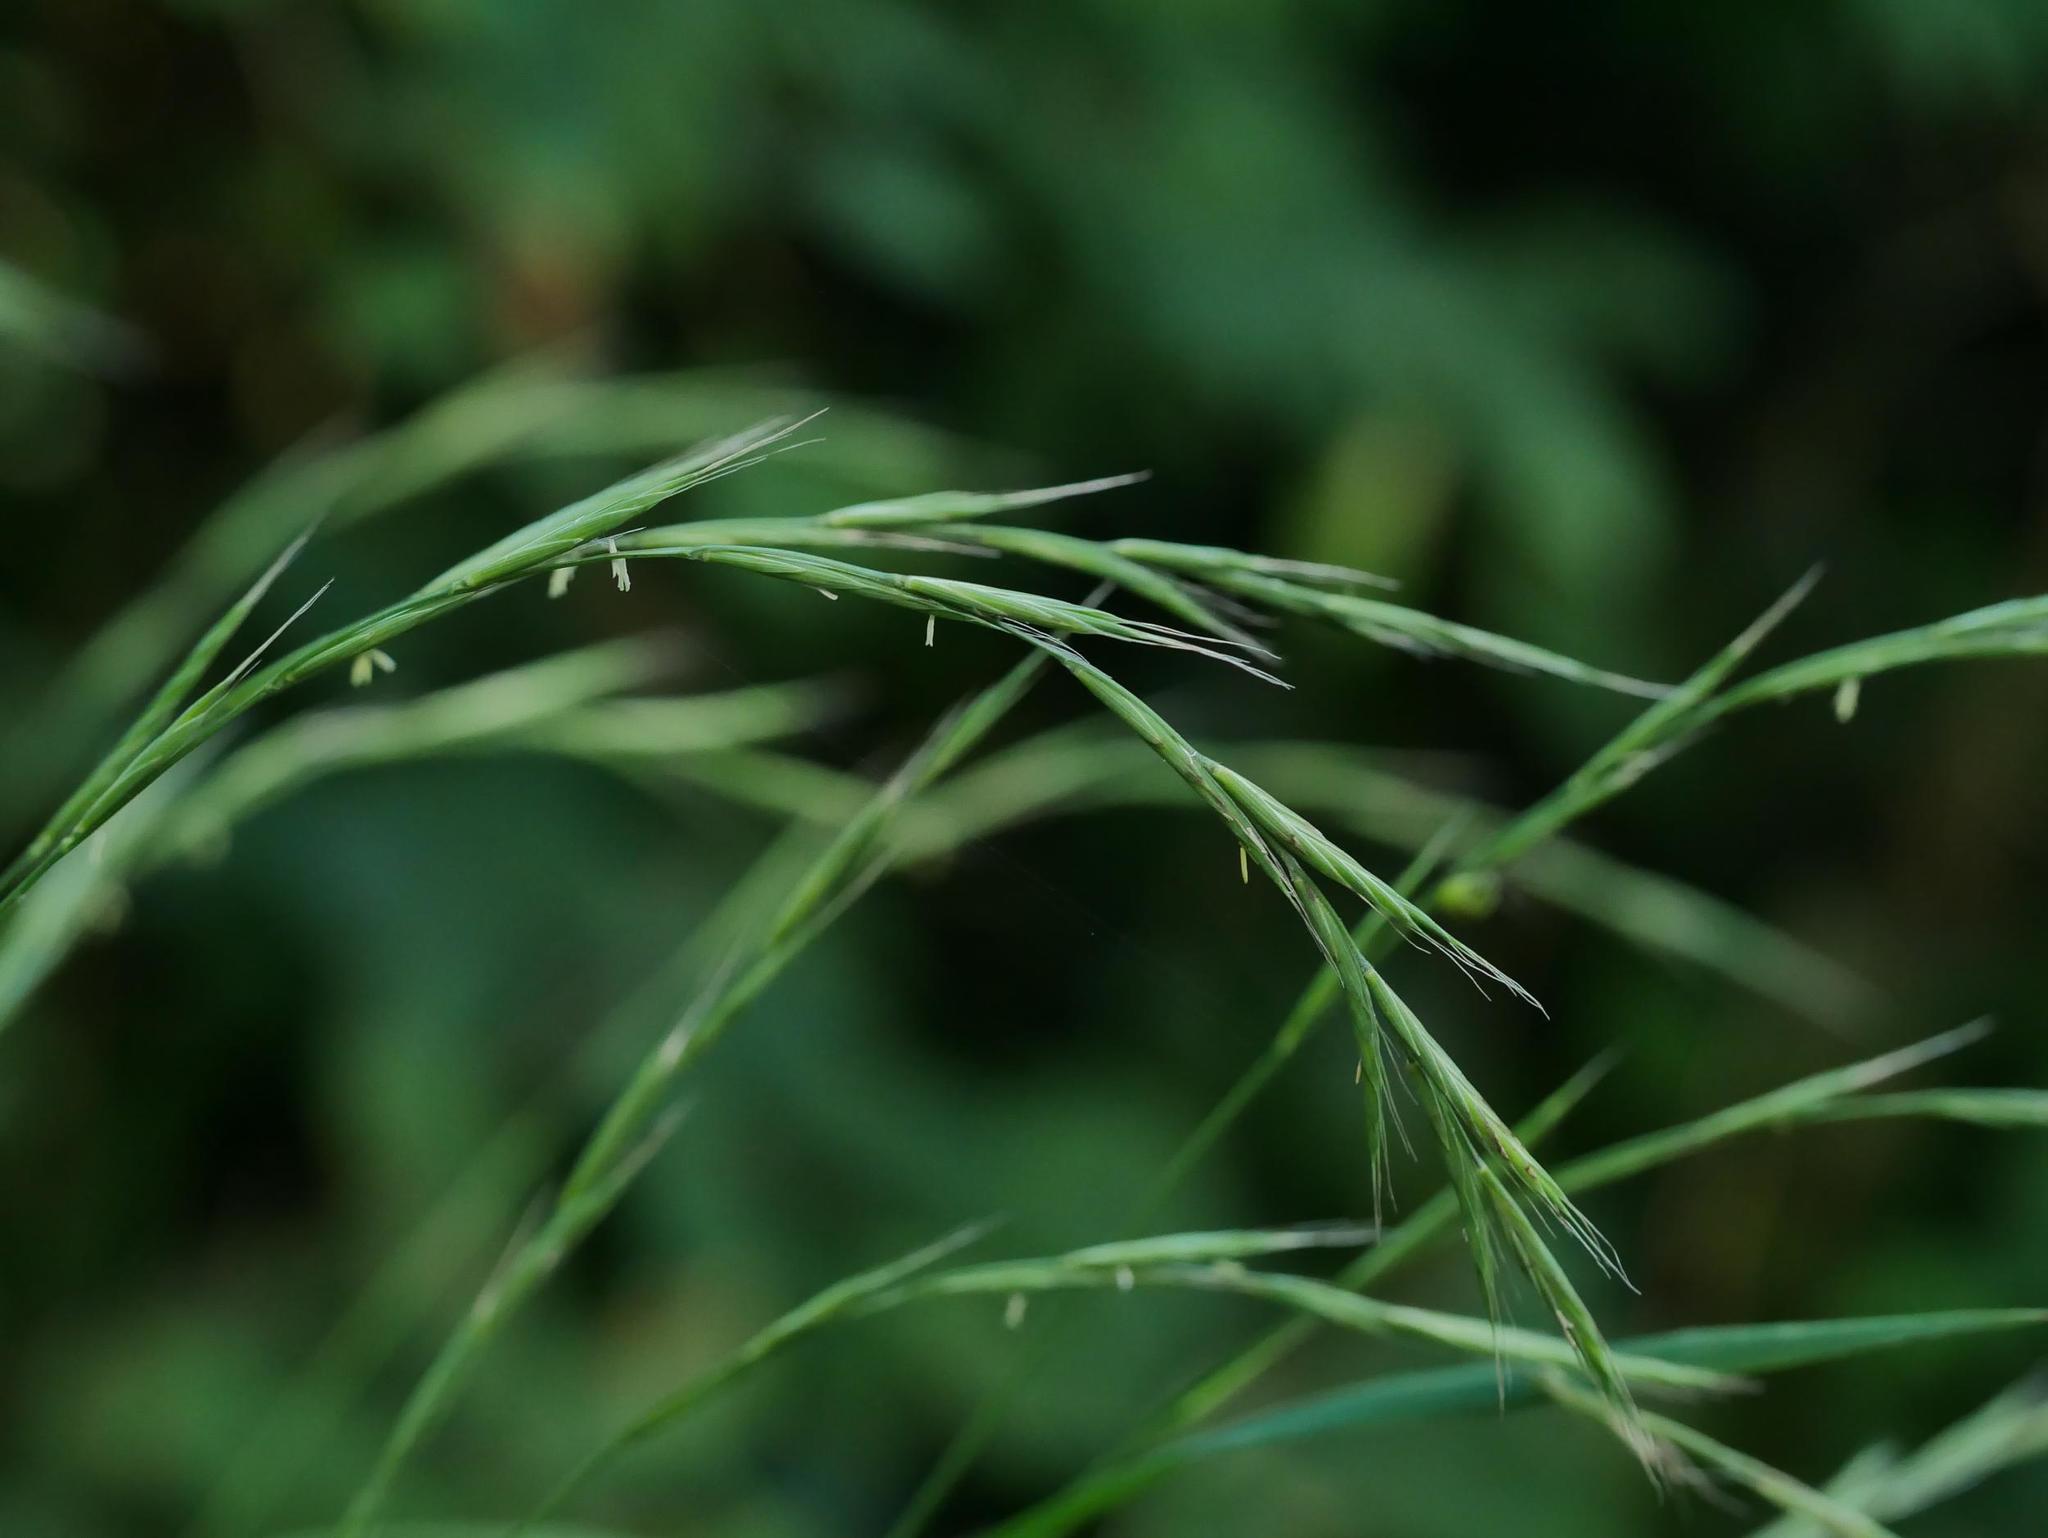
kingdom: Plantae
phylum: Tracheophyta
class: Liliopsida
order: Poales
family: Poaceae
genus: Brachypodium
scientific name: Brachypodium sylvaticum
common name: False-brome
